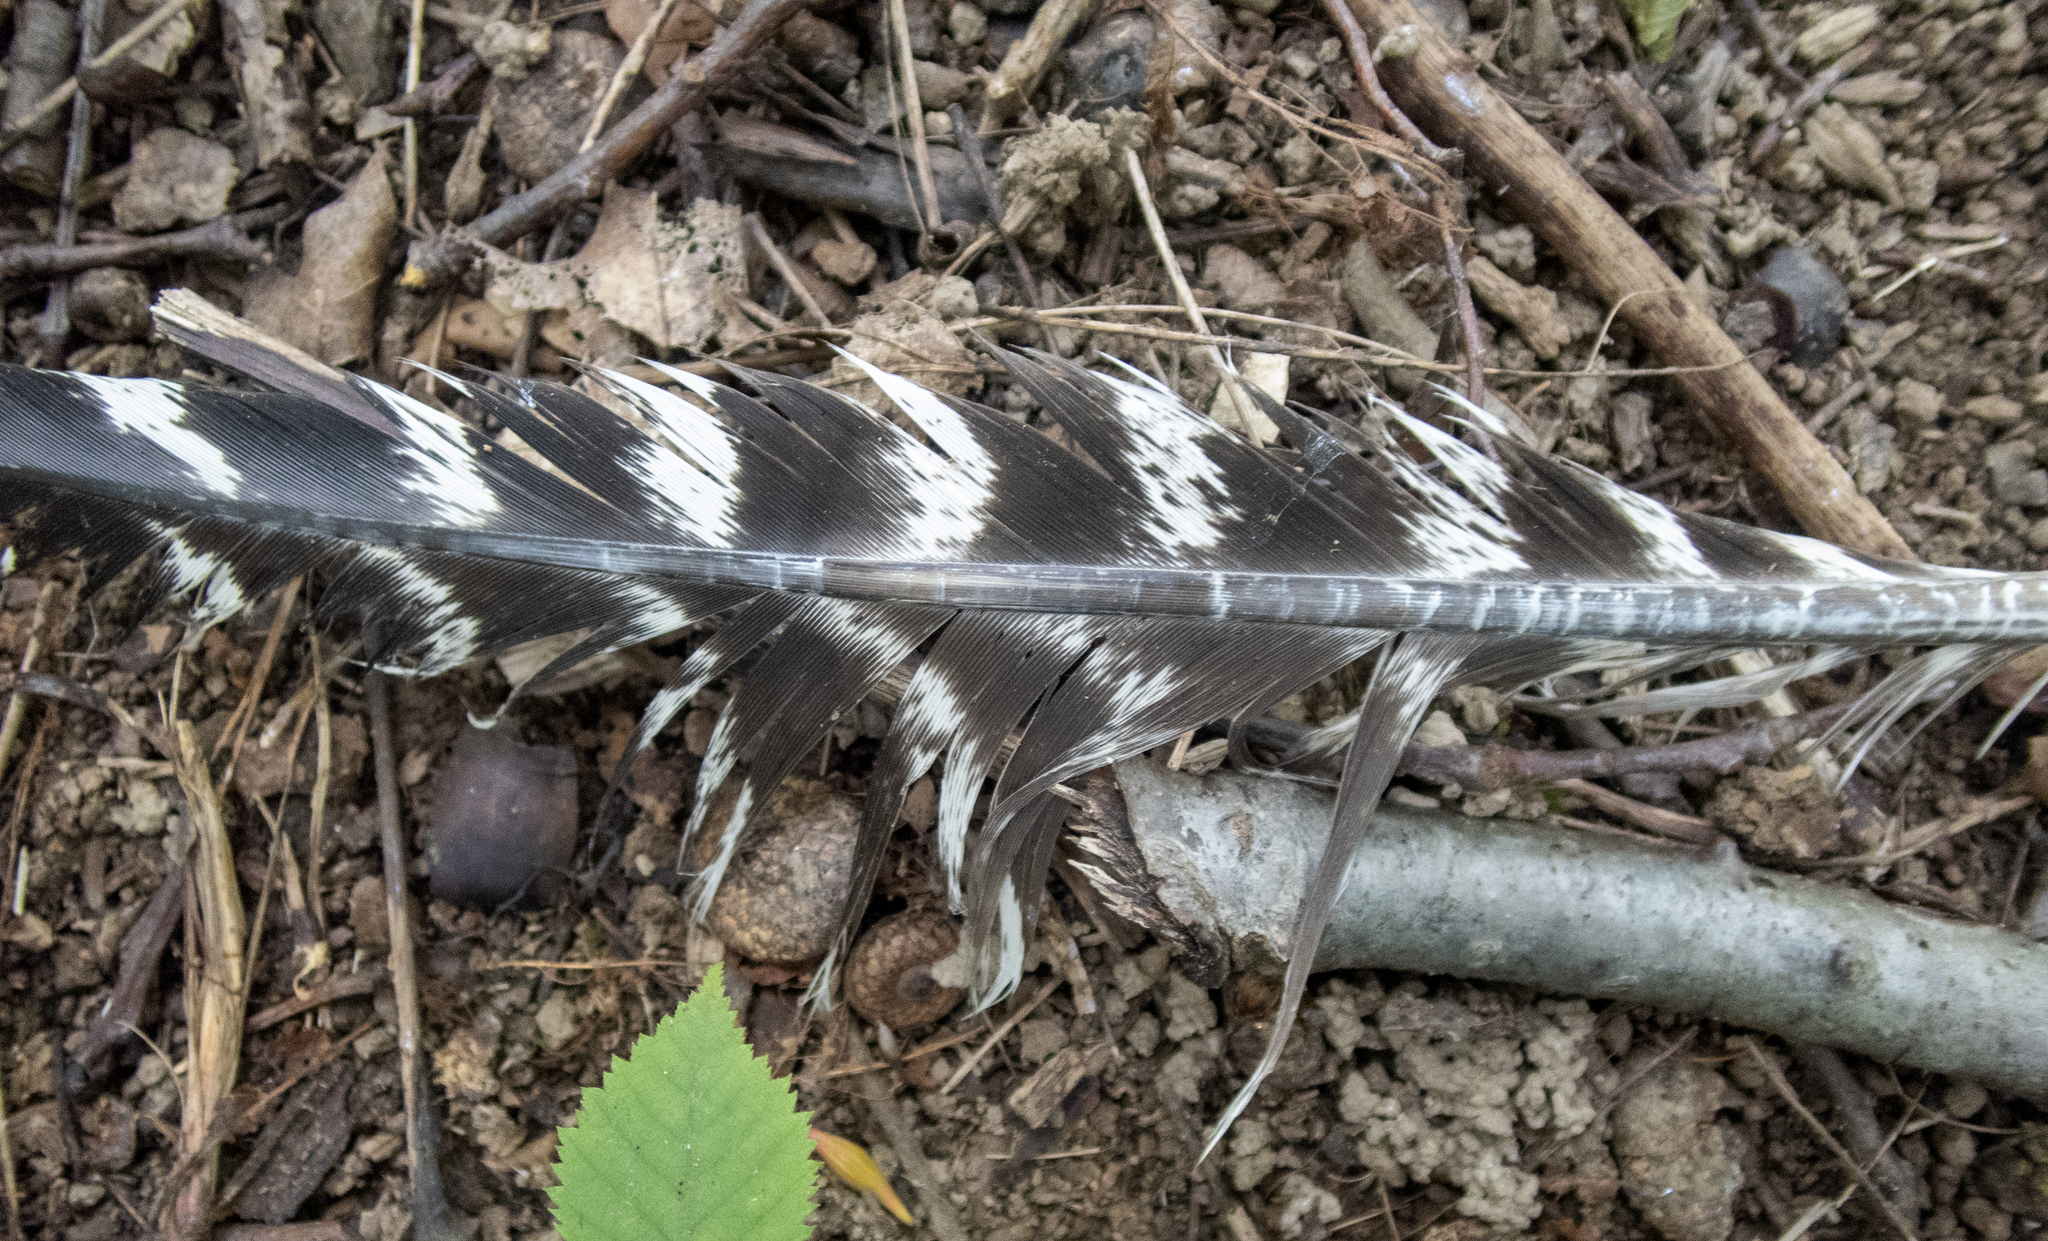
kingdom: Animalia
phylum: Chordata
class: Aves
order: Galliformes
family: Phasianidae
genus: Meleagris
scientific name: Meleagris gallopavo
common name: Wild turkey
